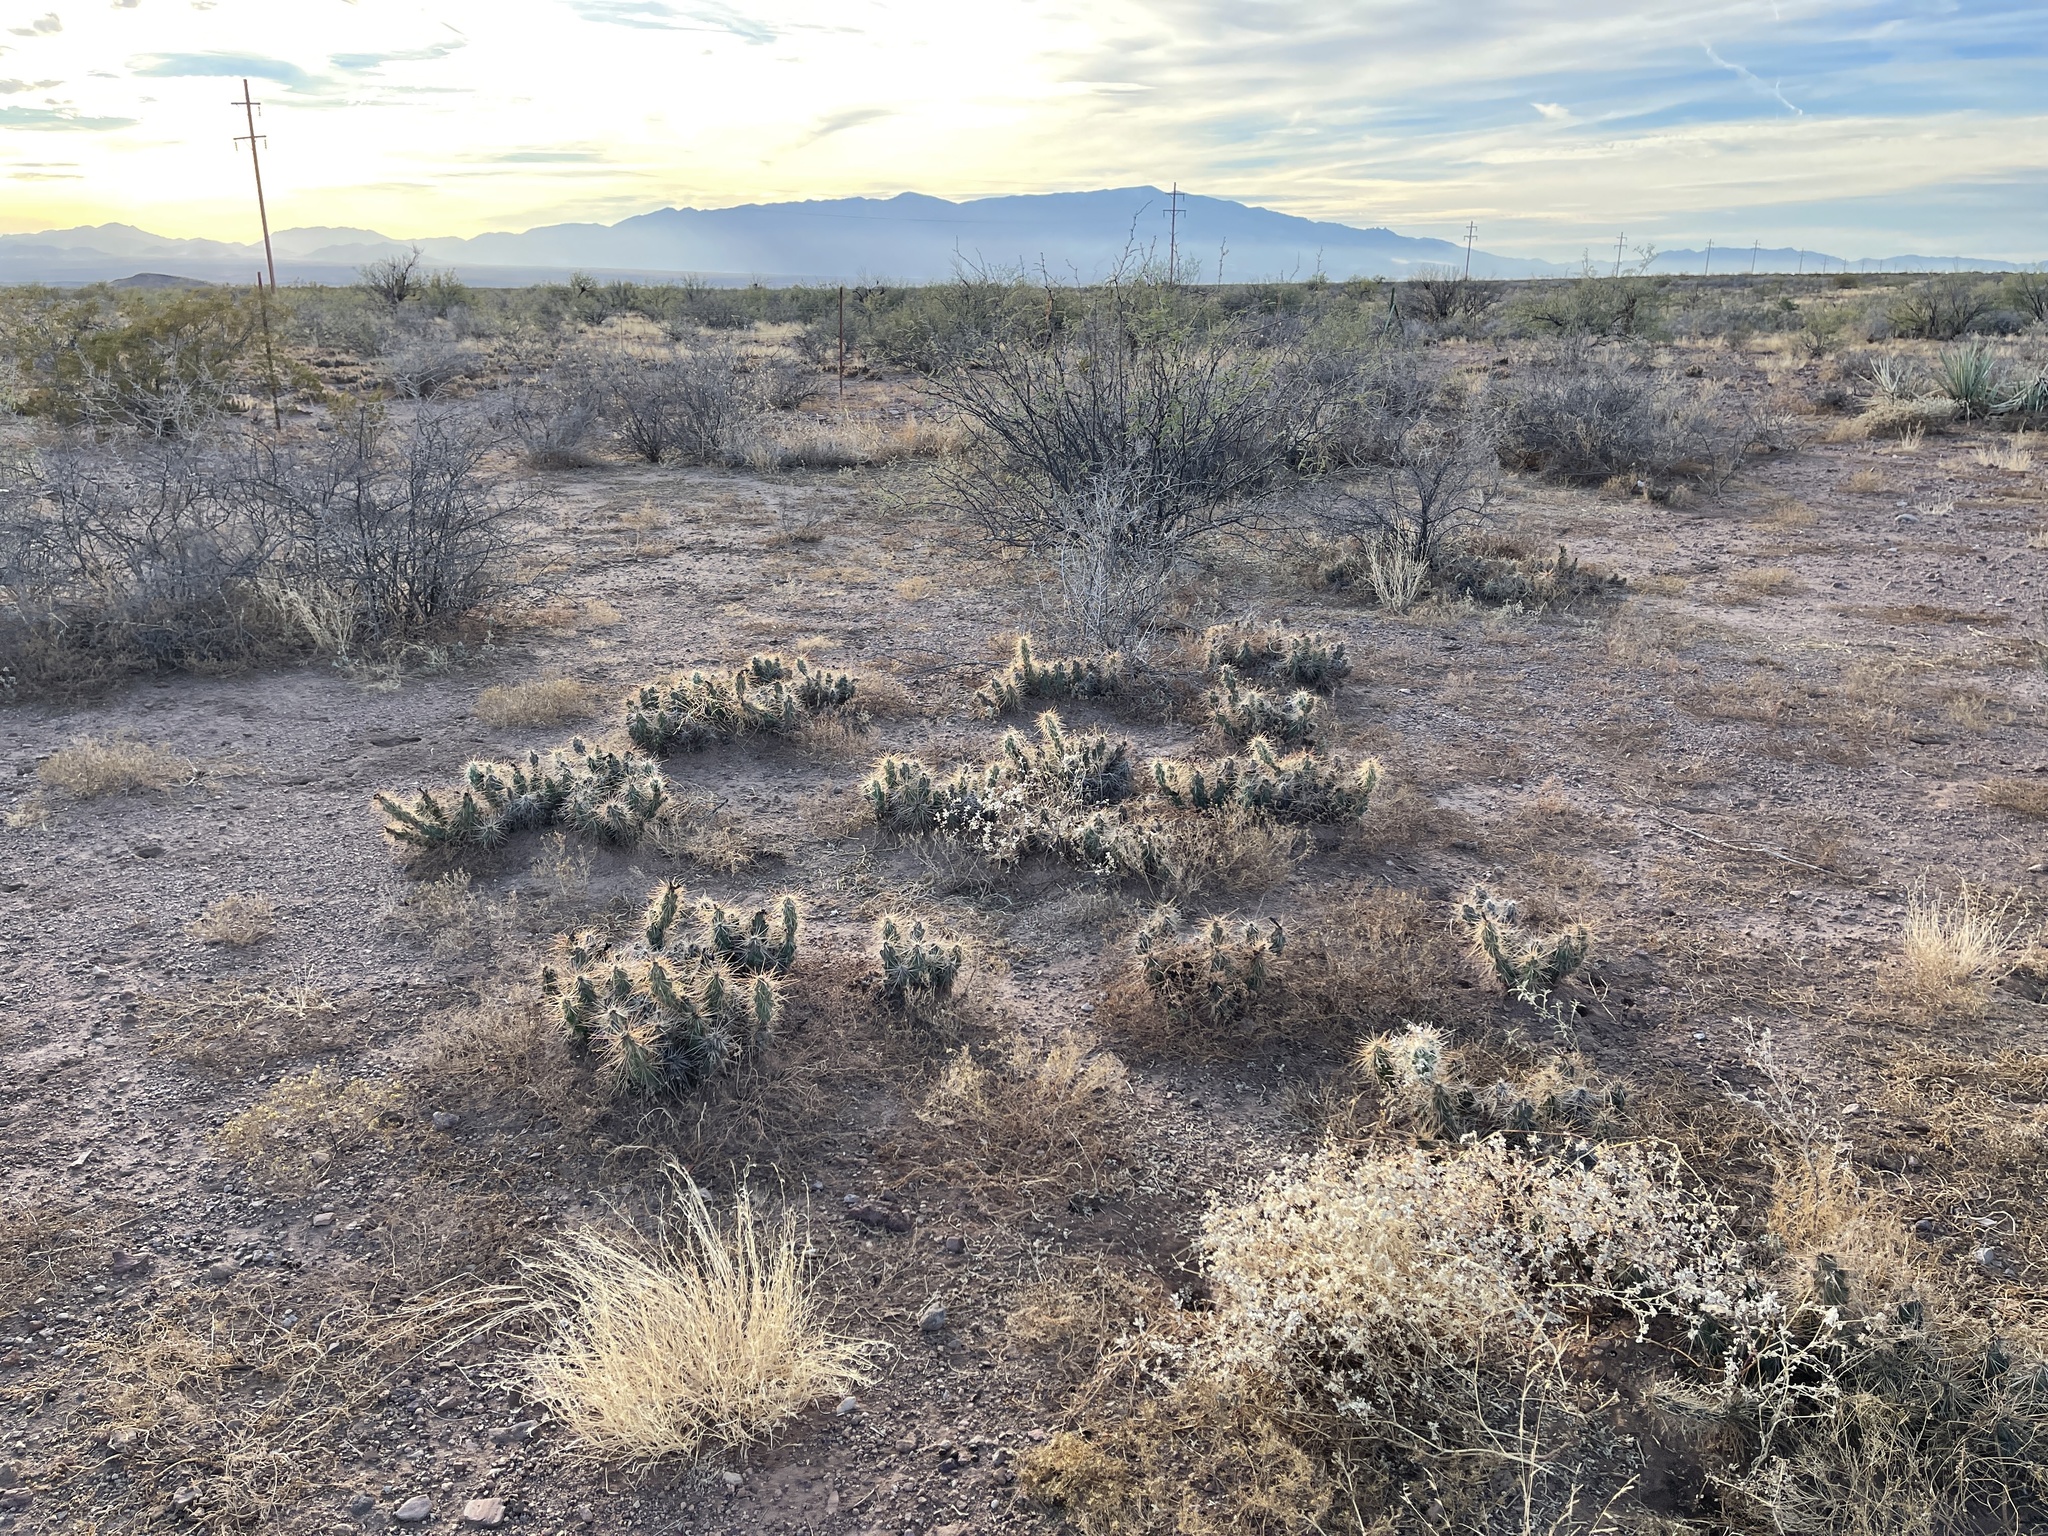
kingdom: Plantae
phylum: Tracheophyta
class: Magnoliopsida
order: Caryophyllales
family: Cactaceae
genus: Grusonia
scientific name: Grusonia emoryi
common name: Stanly's club cholla
